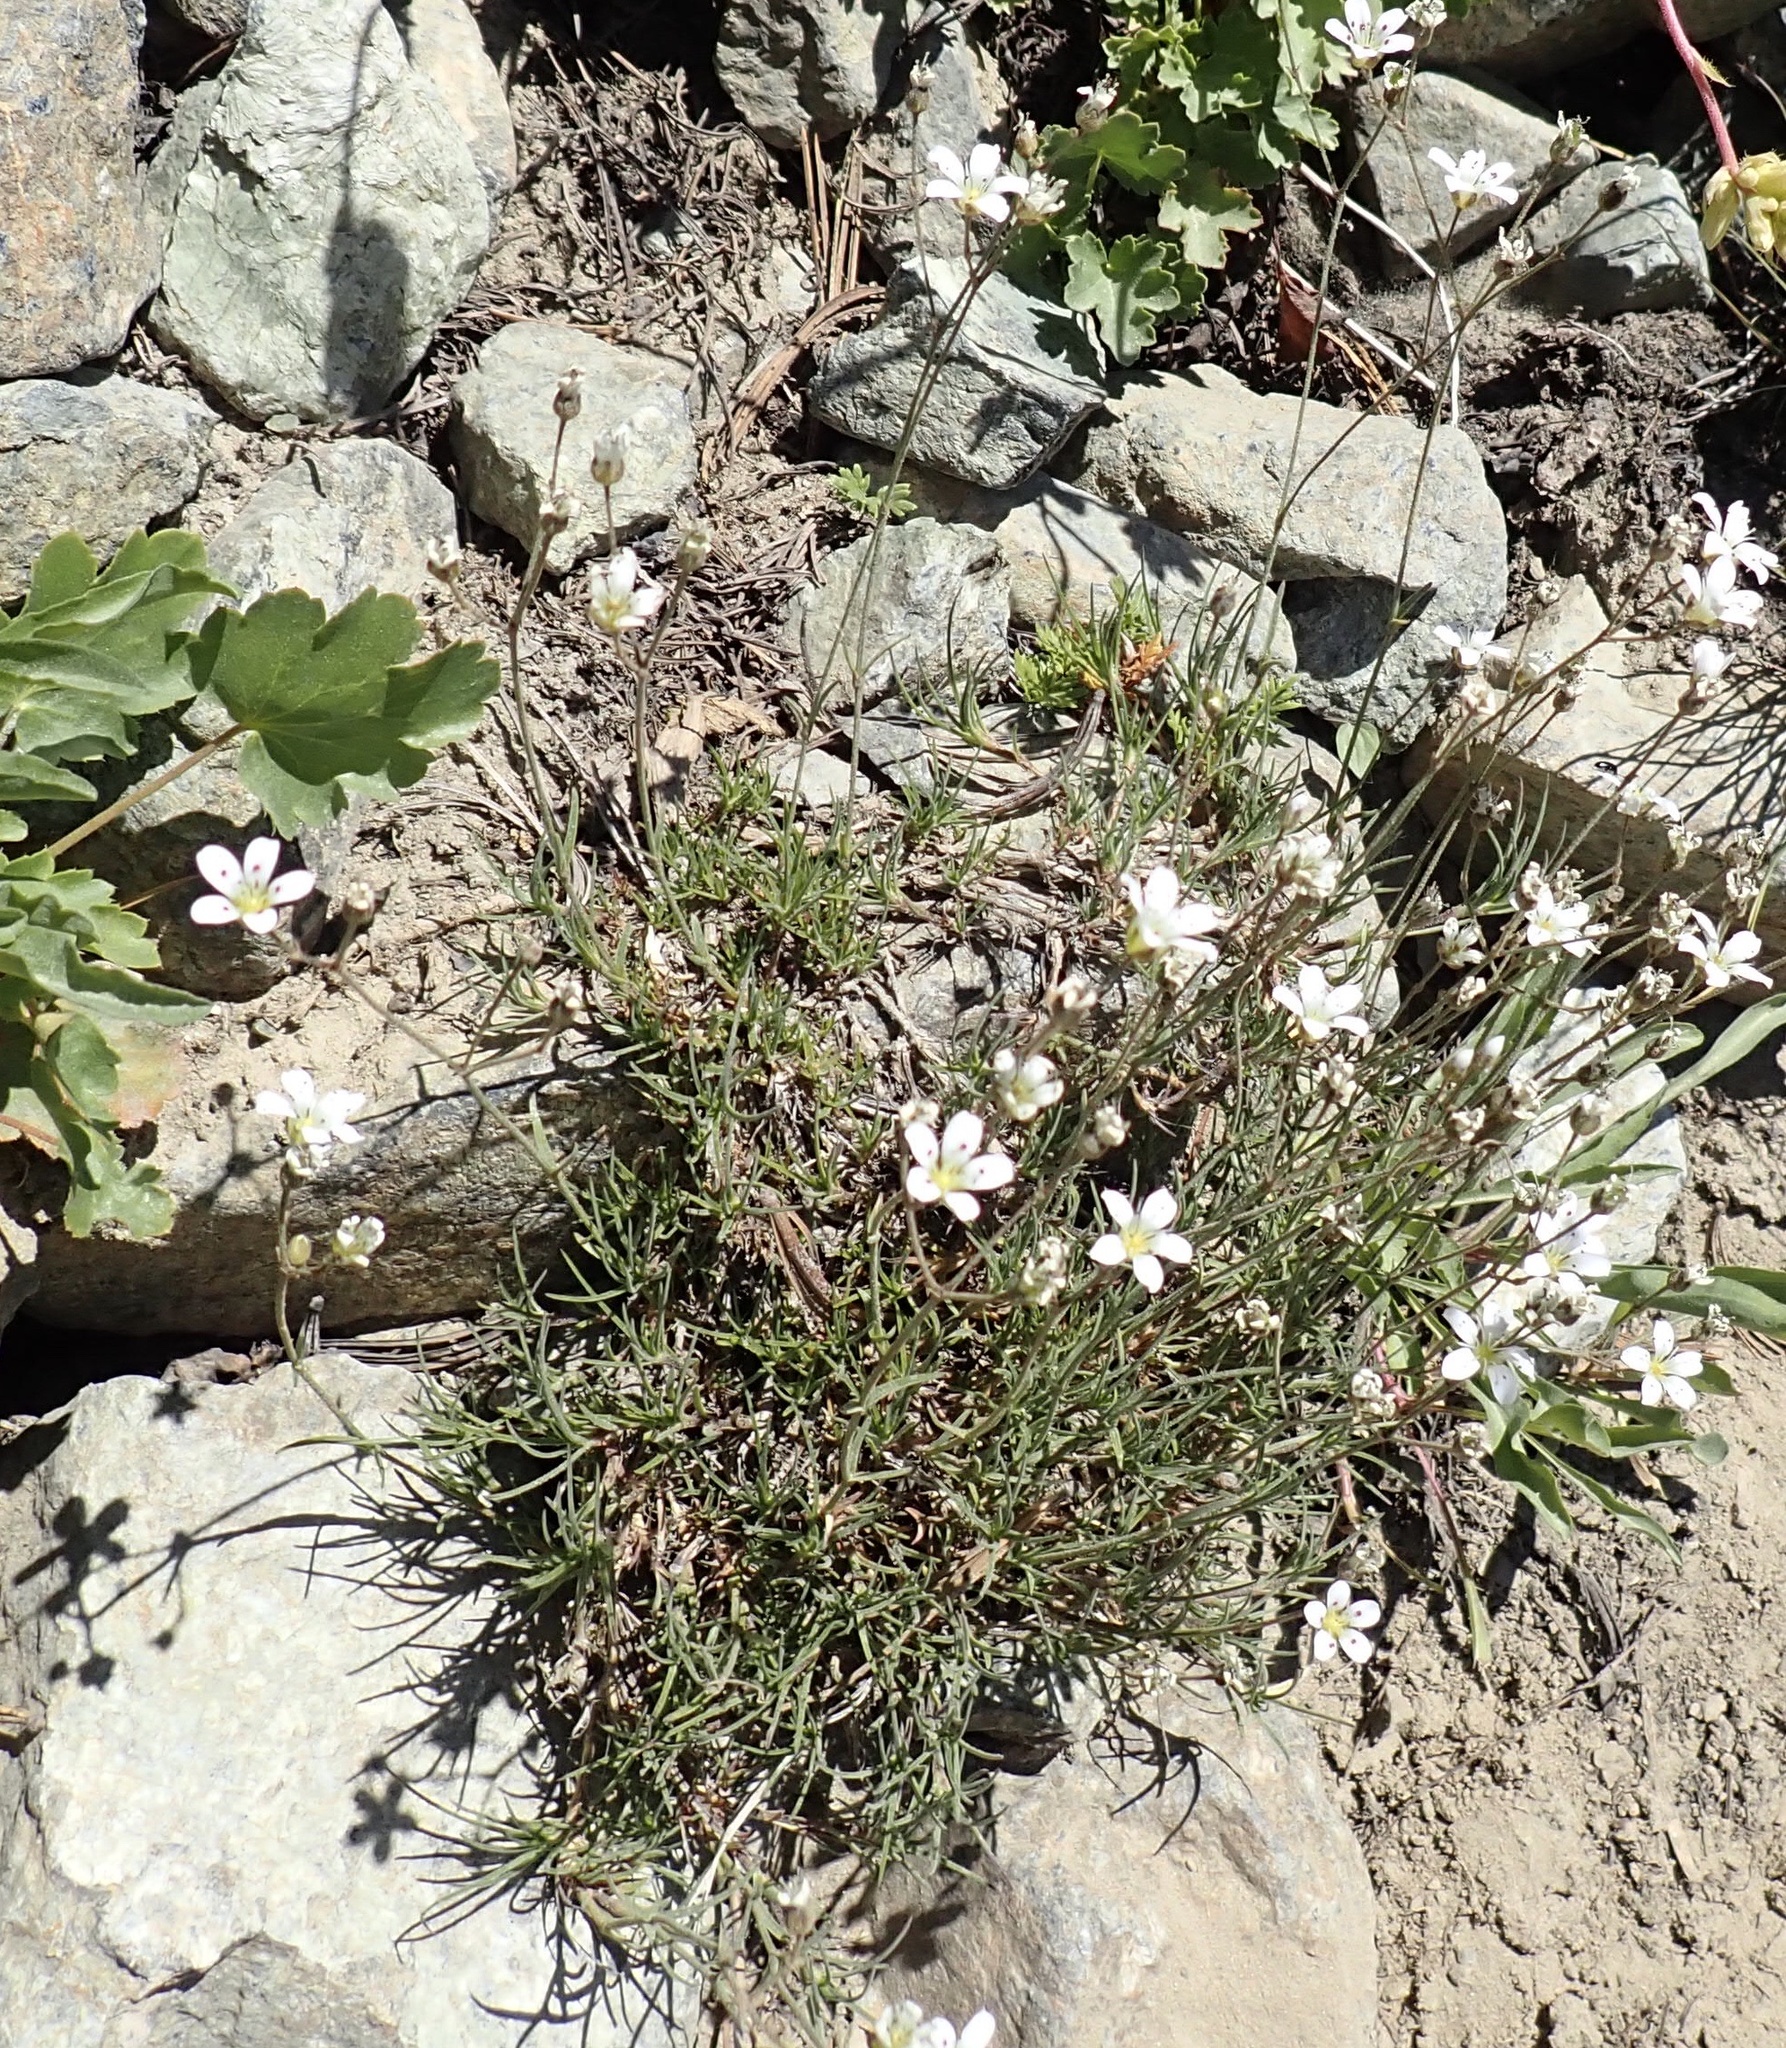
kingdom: Plantae
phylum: Tracheophyta
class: Magnoliopsida
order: Caryophyllales
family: Caryophyllaceae
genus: Eremogone
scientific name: Eremogone capillaris
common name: Slender mountain sandwort
